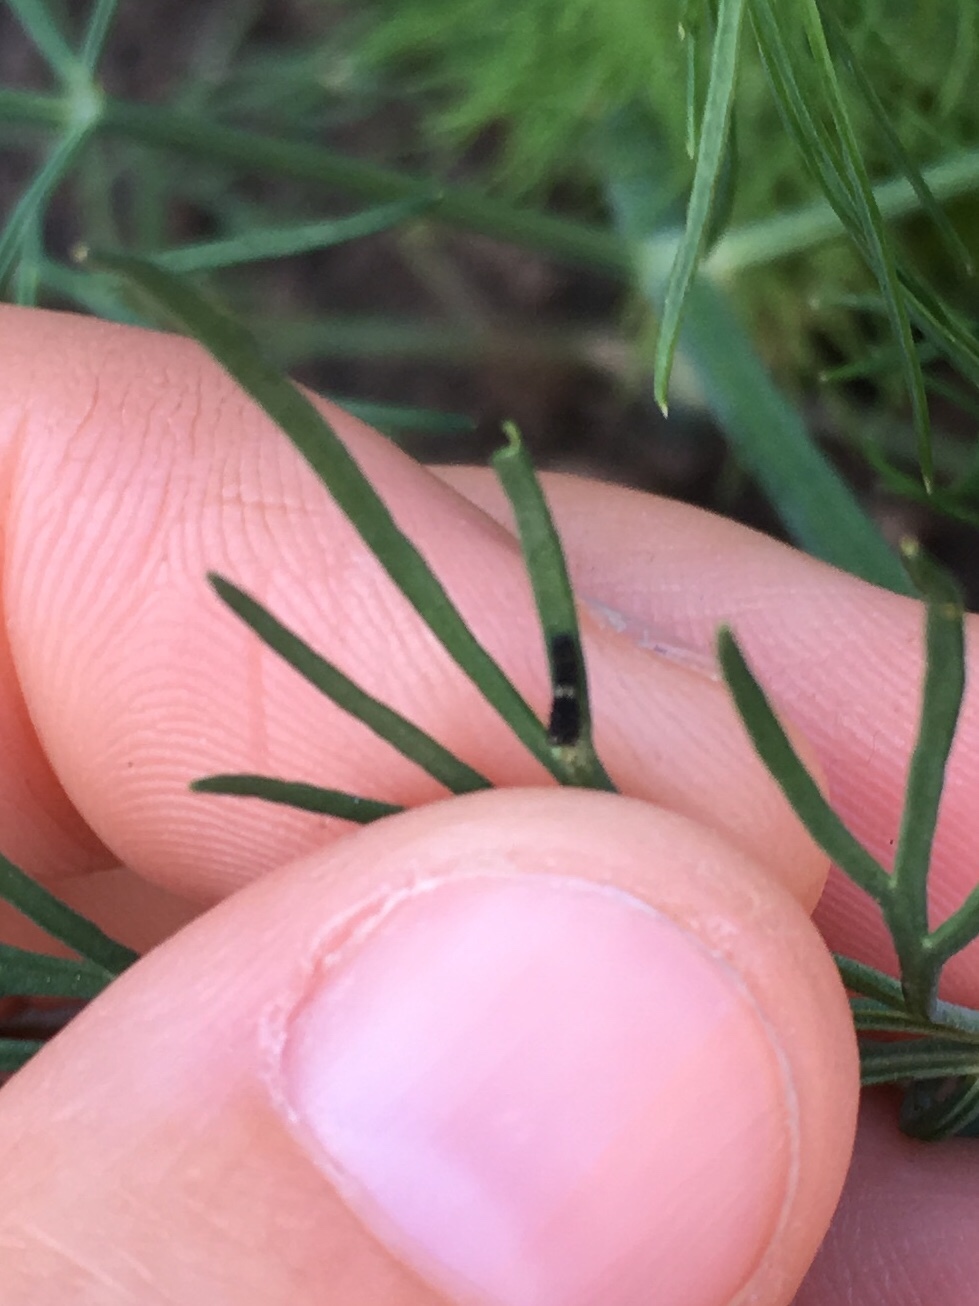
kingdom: Animalia
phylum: Arthropoda
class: Insecta
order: Lepidoptera
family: Papilionidae
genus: Papilio
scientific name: Papilio polyxenes
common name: Black swallowtail
